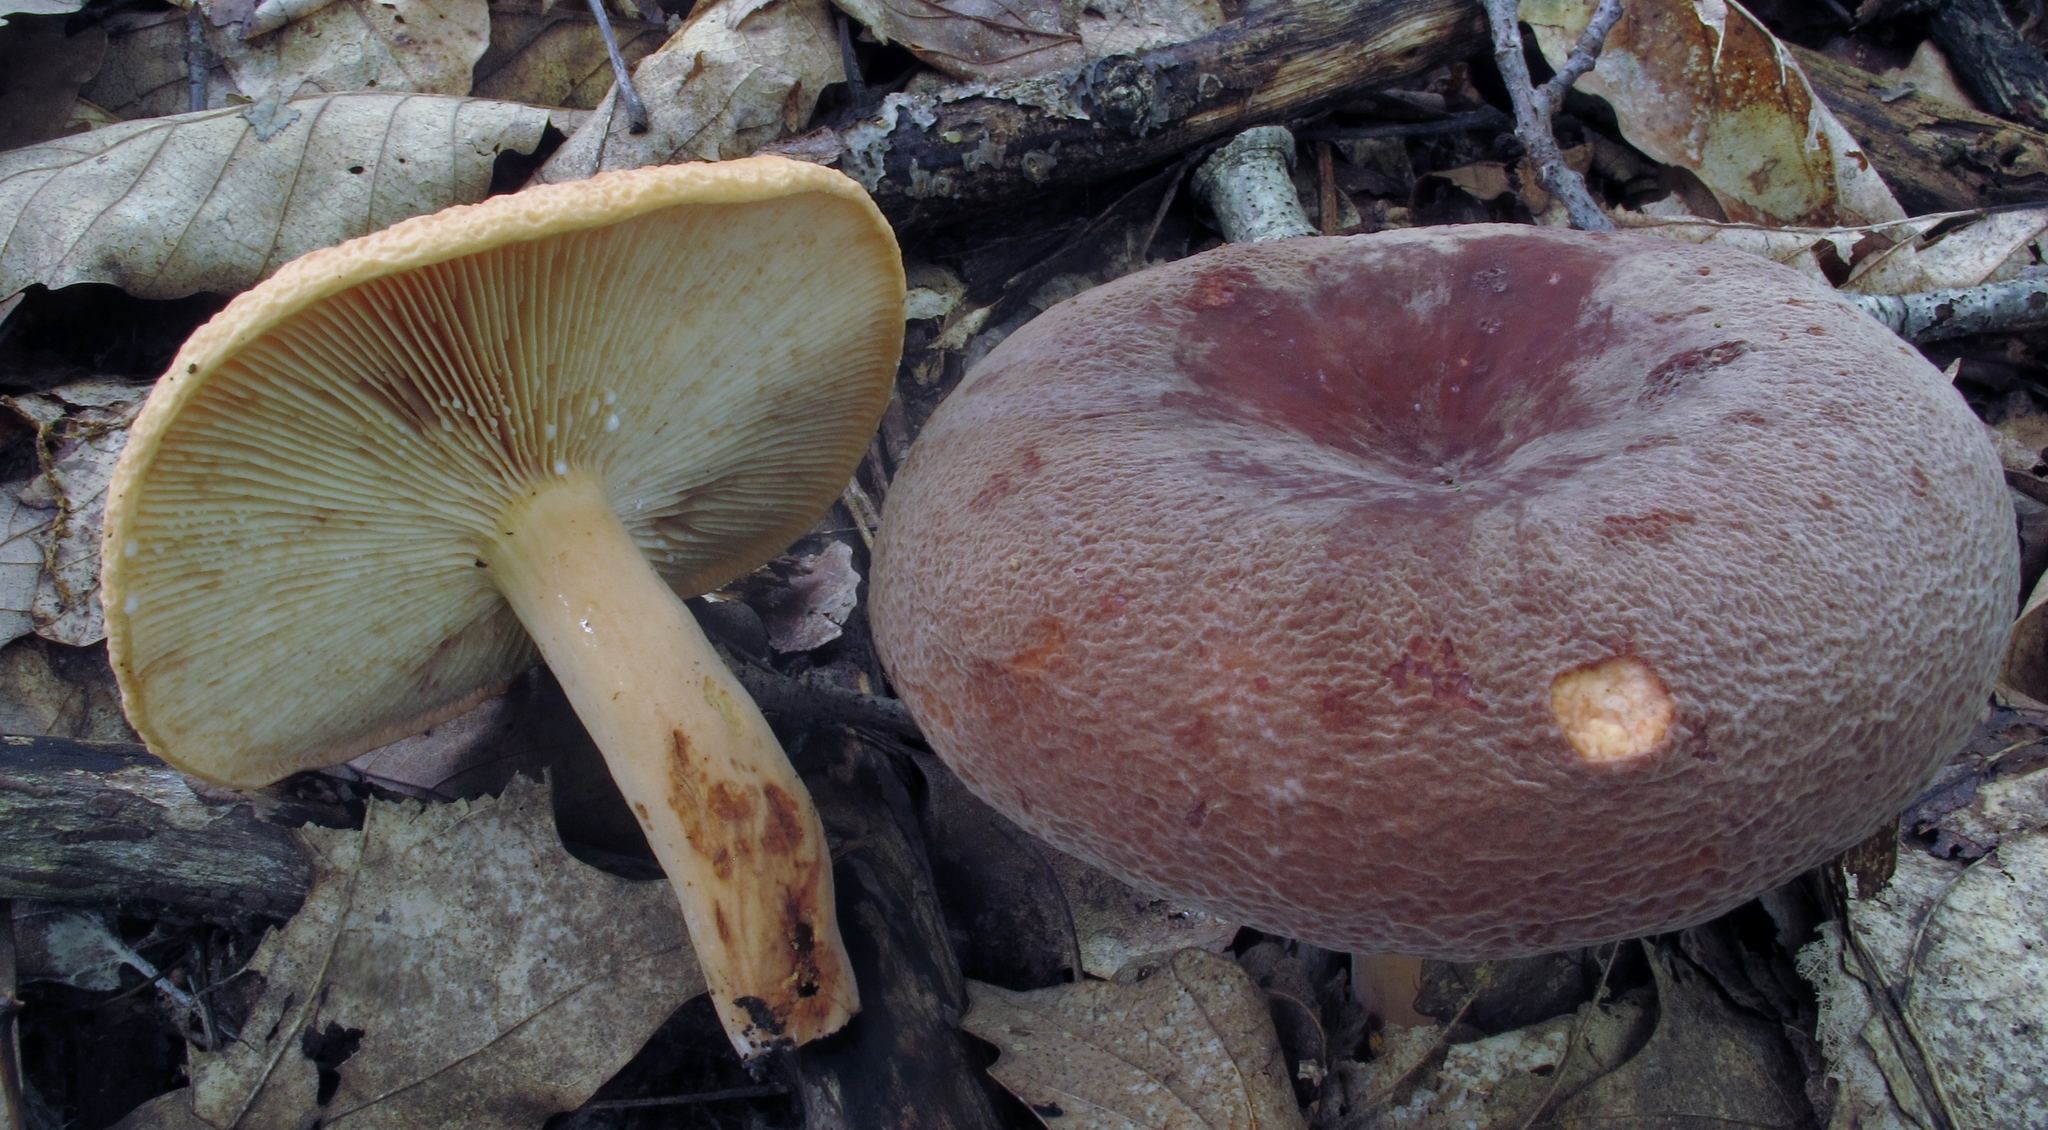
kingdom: Fungi
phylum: Basidiomycota
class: Agaricomycetes
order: Russulales
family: Russulaceae
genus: Lactarius
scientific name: Lactarius corrugis
